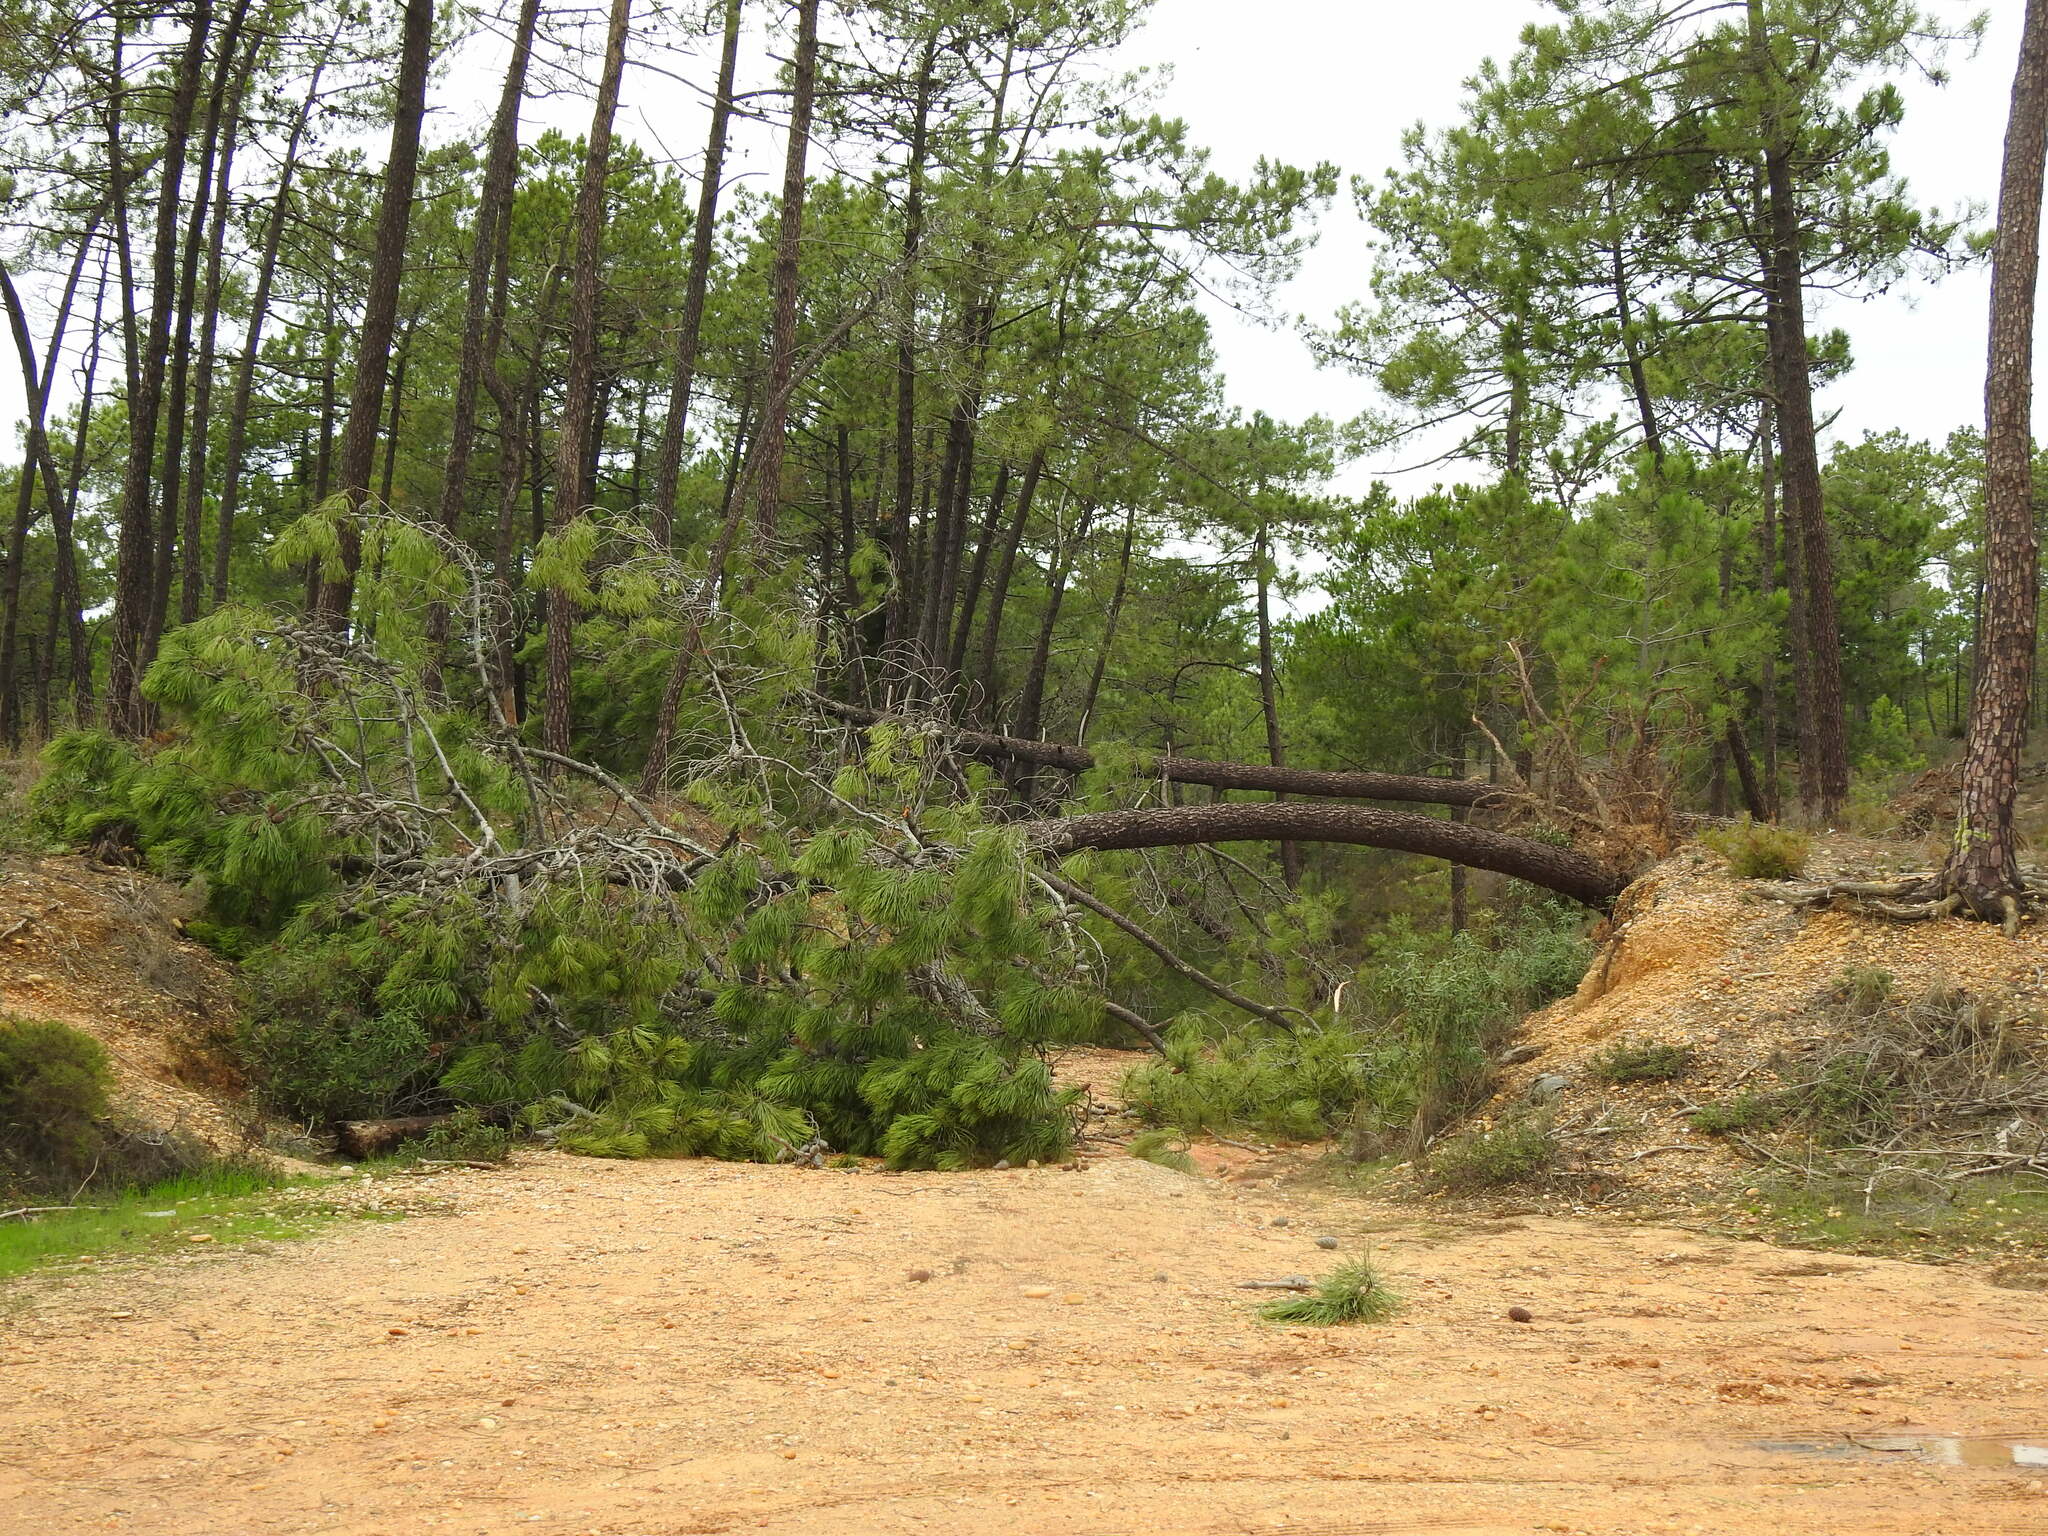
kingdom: Plantae
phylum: Tracheophyta
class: Pinopsida
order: Pinales
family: Pinaceae
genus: Pinus
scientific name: Pinus pinaster
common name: Maritime pine
